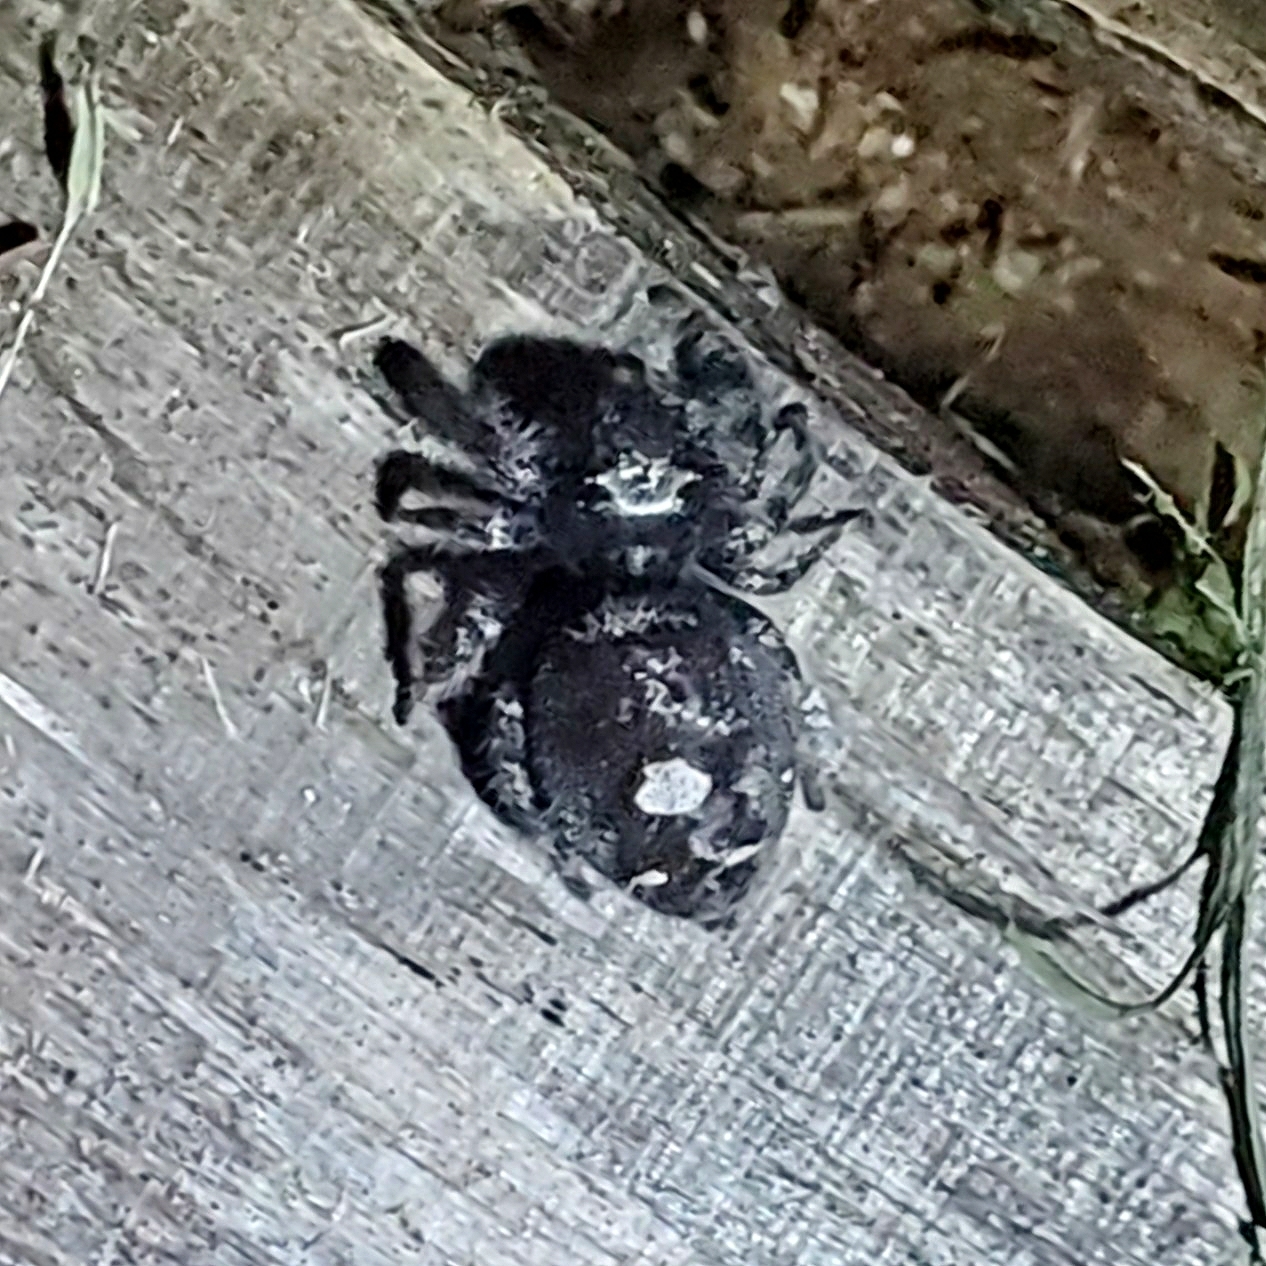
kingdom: Animalia
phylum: Arthropoda
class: Arachnida
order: Araneae
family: Salticidae
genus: Phidippus
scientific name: Phidippus audax
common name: Bold jumper
